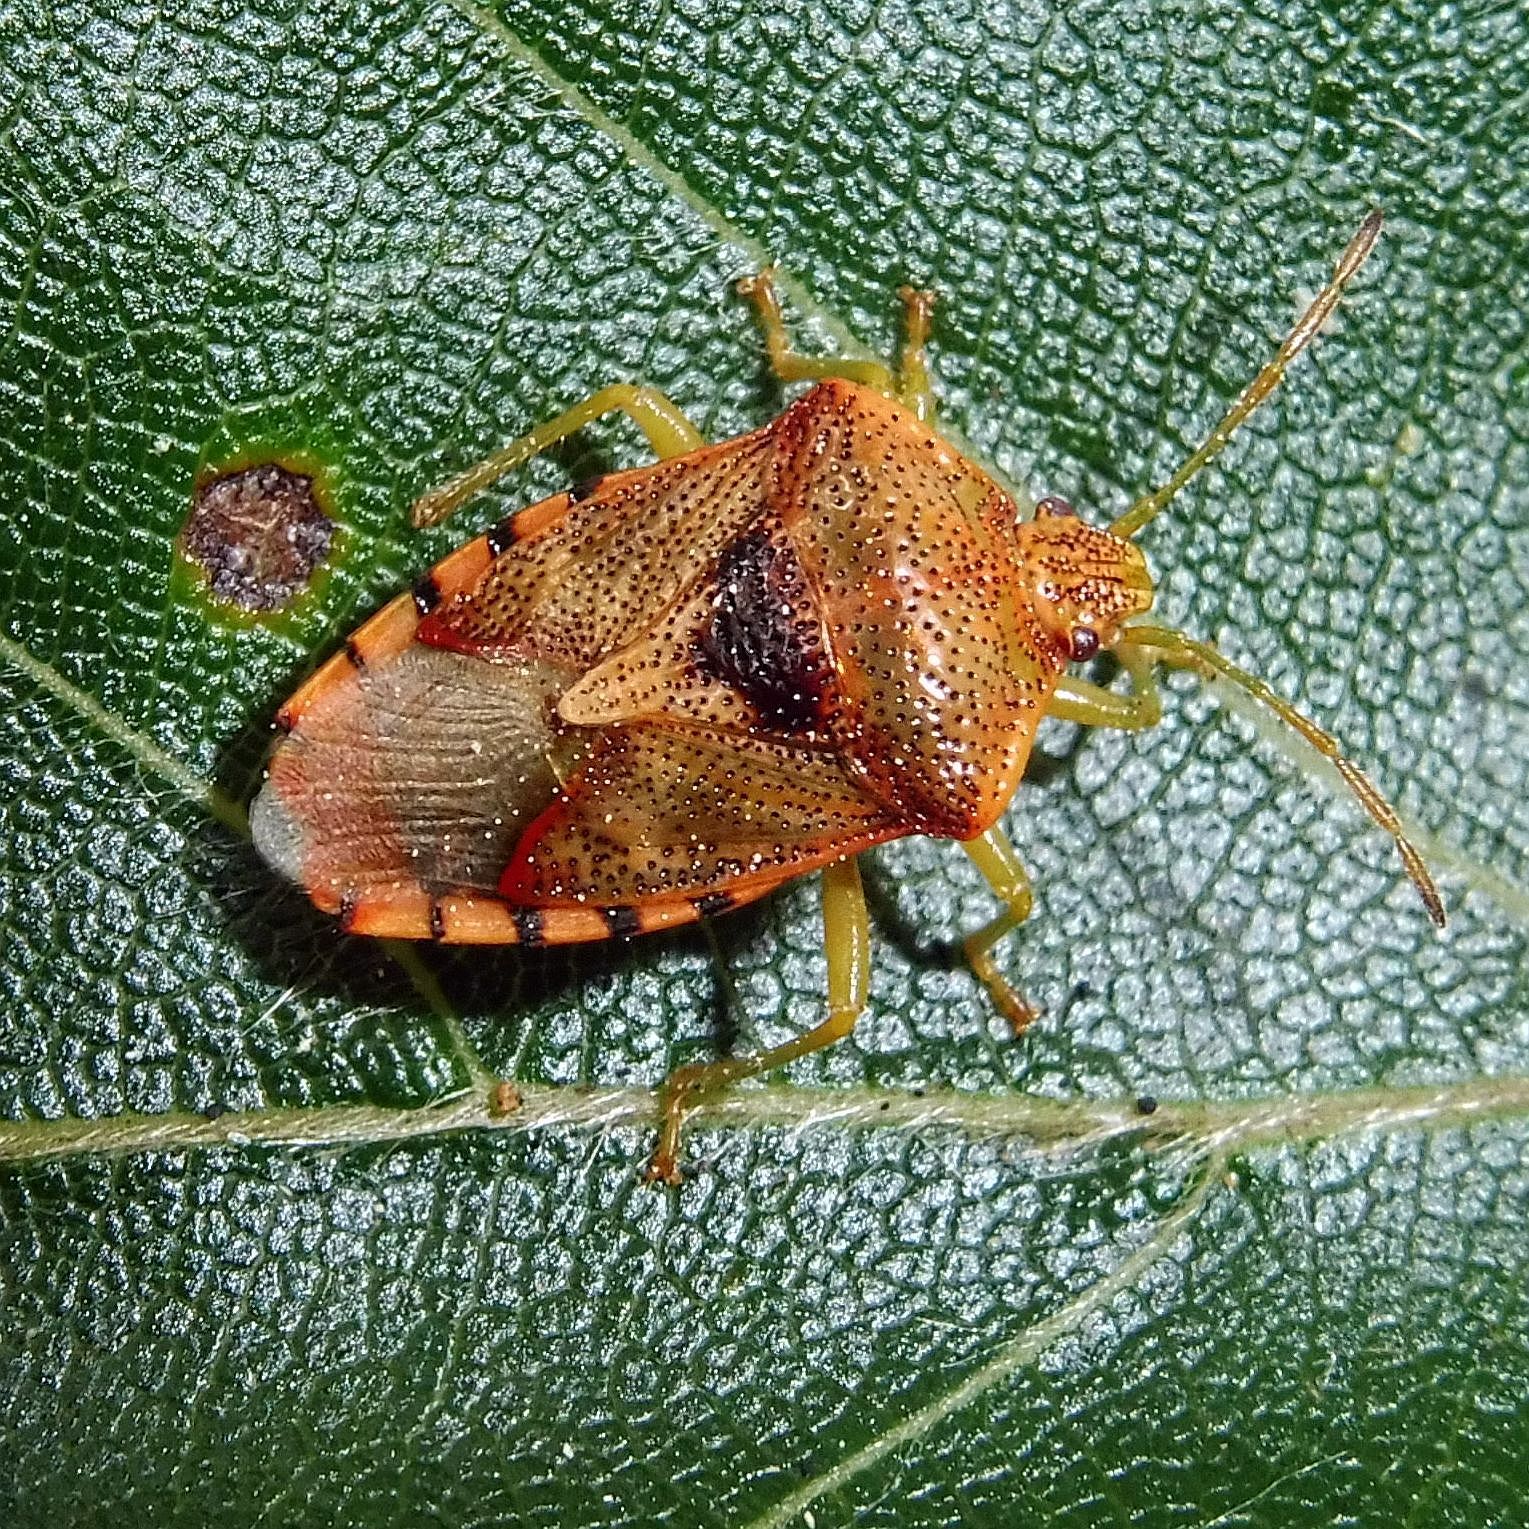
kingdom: Animalia
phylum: Arthropoda
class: Insecta
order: Hemiptera
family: Acanthosomatidae
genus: Elasmucha
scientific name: Elasmucha grisea
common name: Parent bug
